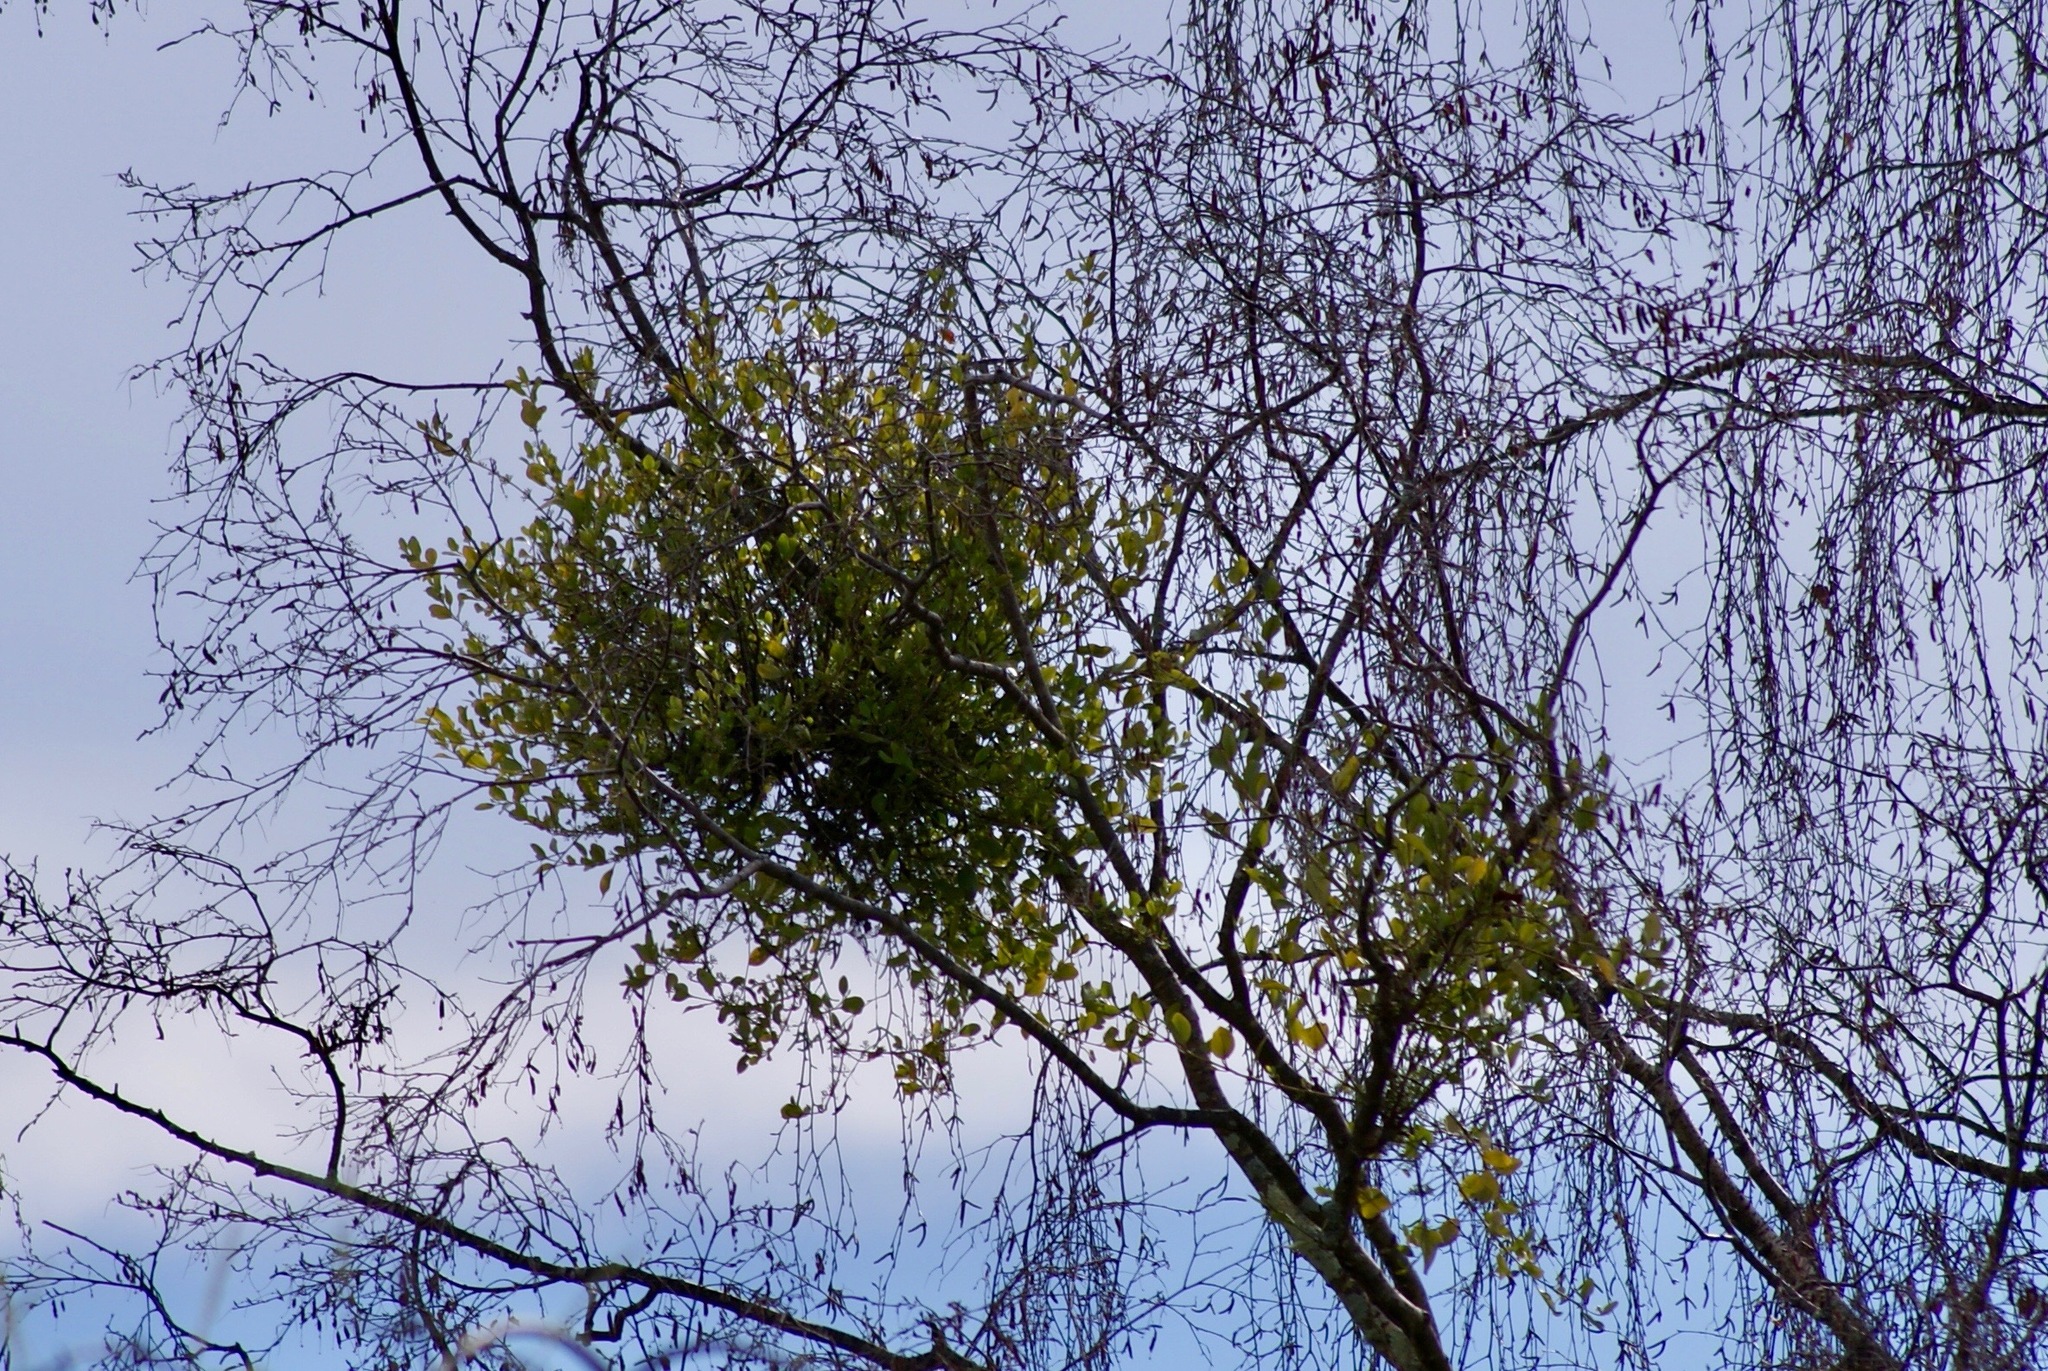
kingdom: Plantae
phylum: Tracheophyta
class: Magnoliopsida
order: Santalales
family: Loranthaceae
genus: Ileostylus
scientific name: Ileostylus micranthus
